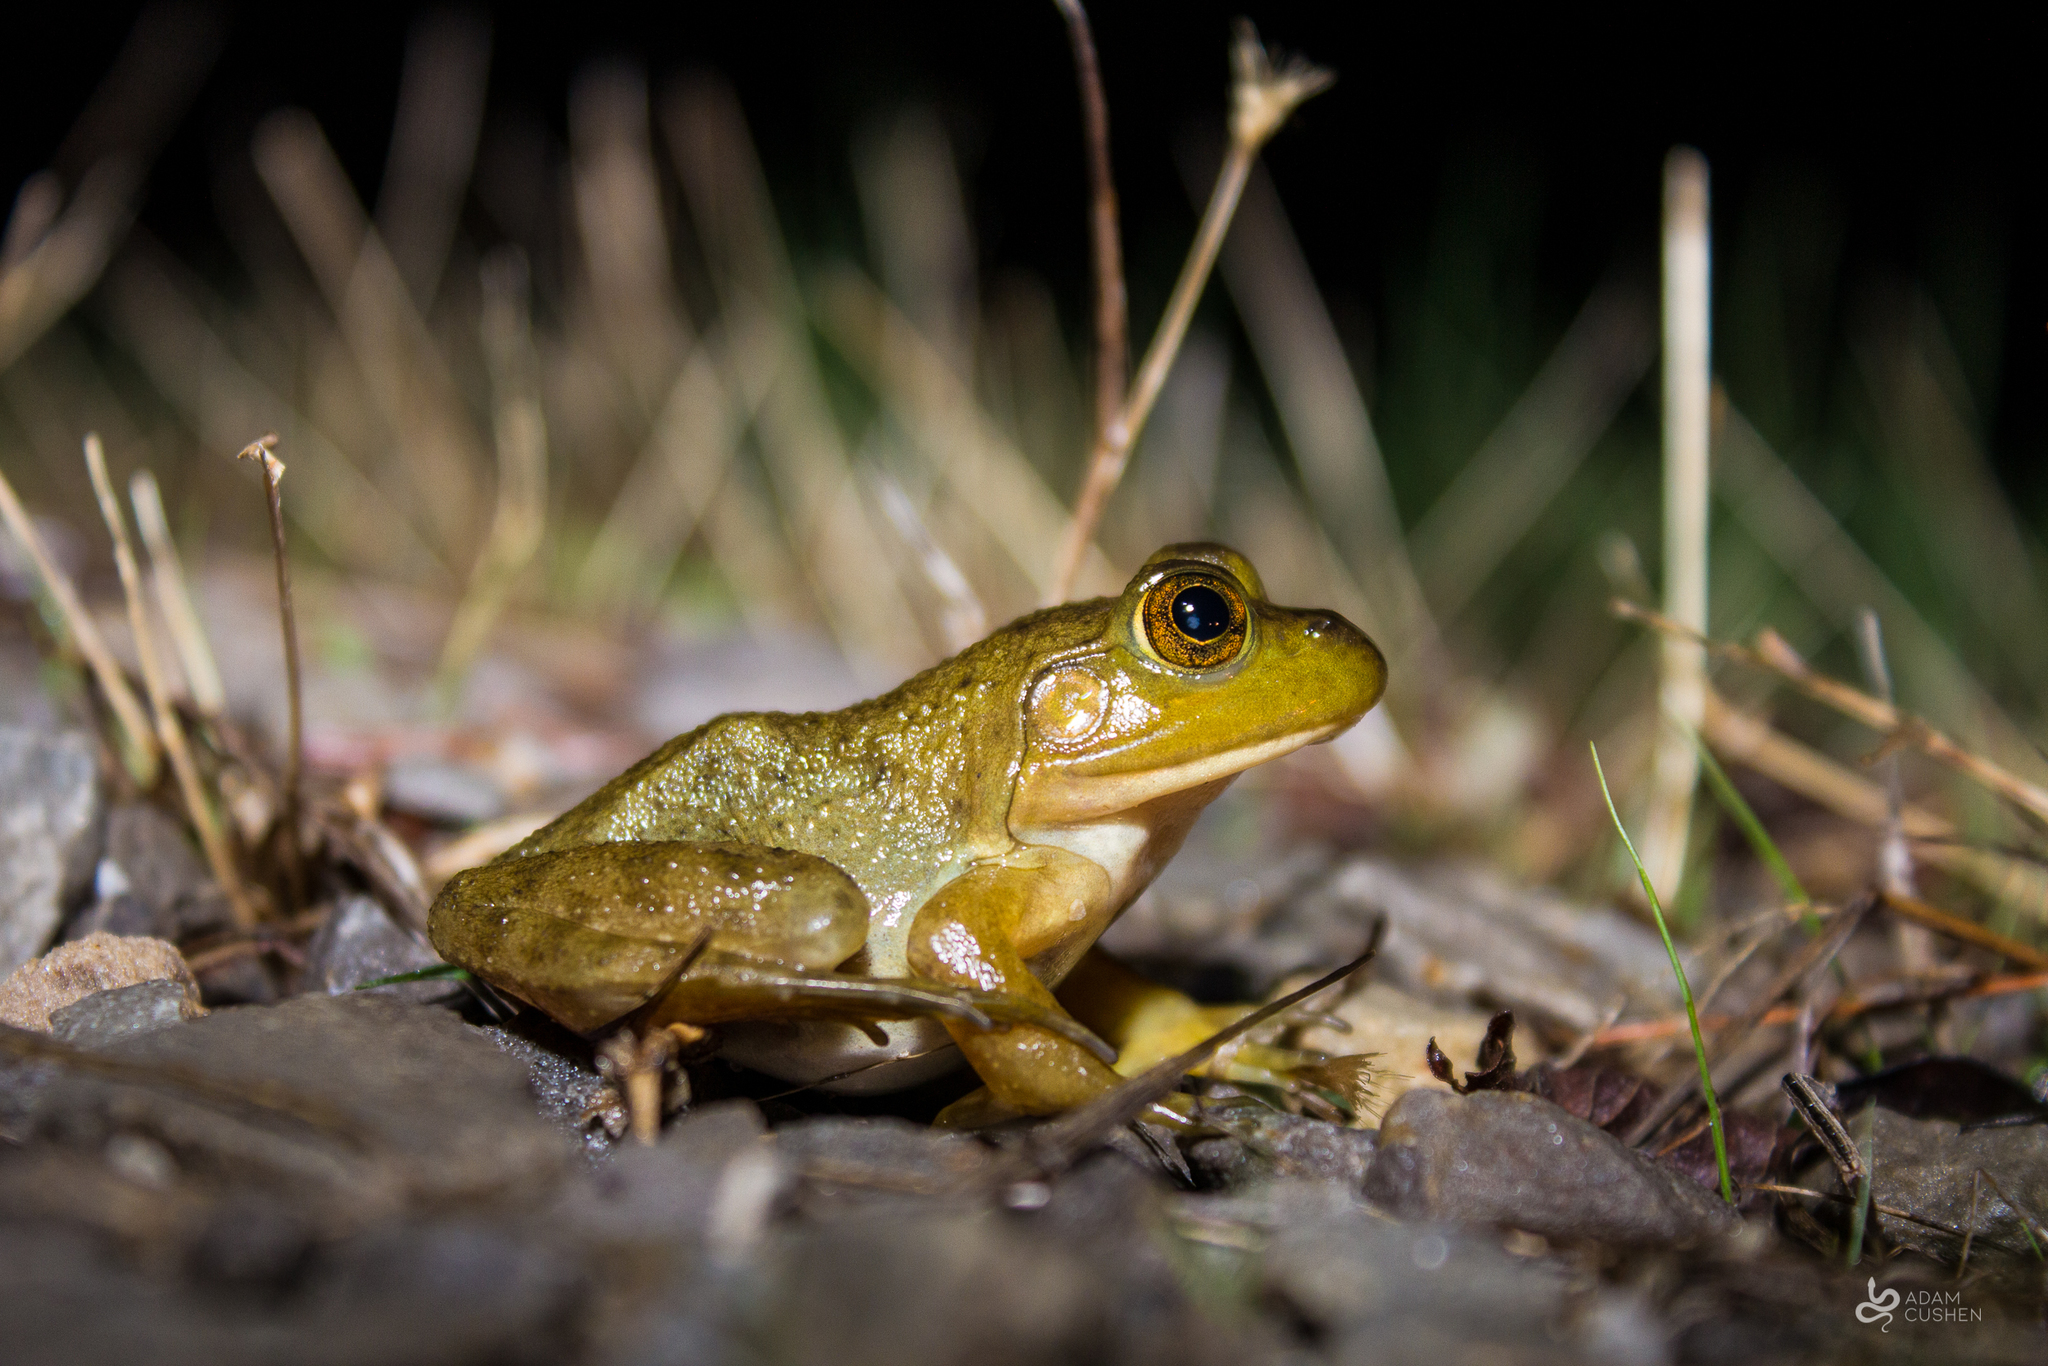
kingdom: Animalia
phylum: Chordata
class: Amphibia
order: Anura
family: Ranidae
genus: Lithobates
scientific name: Lithobates catesbeianus
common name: American bullfrog
